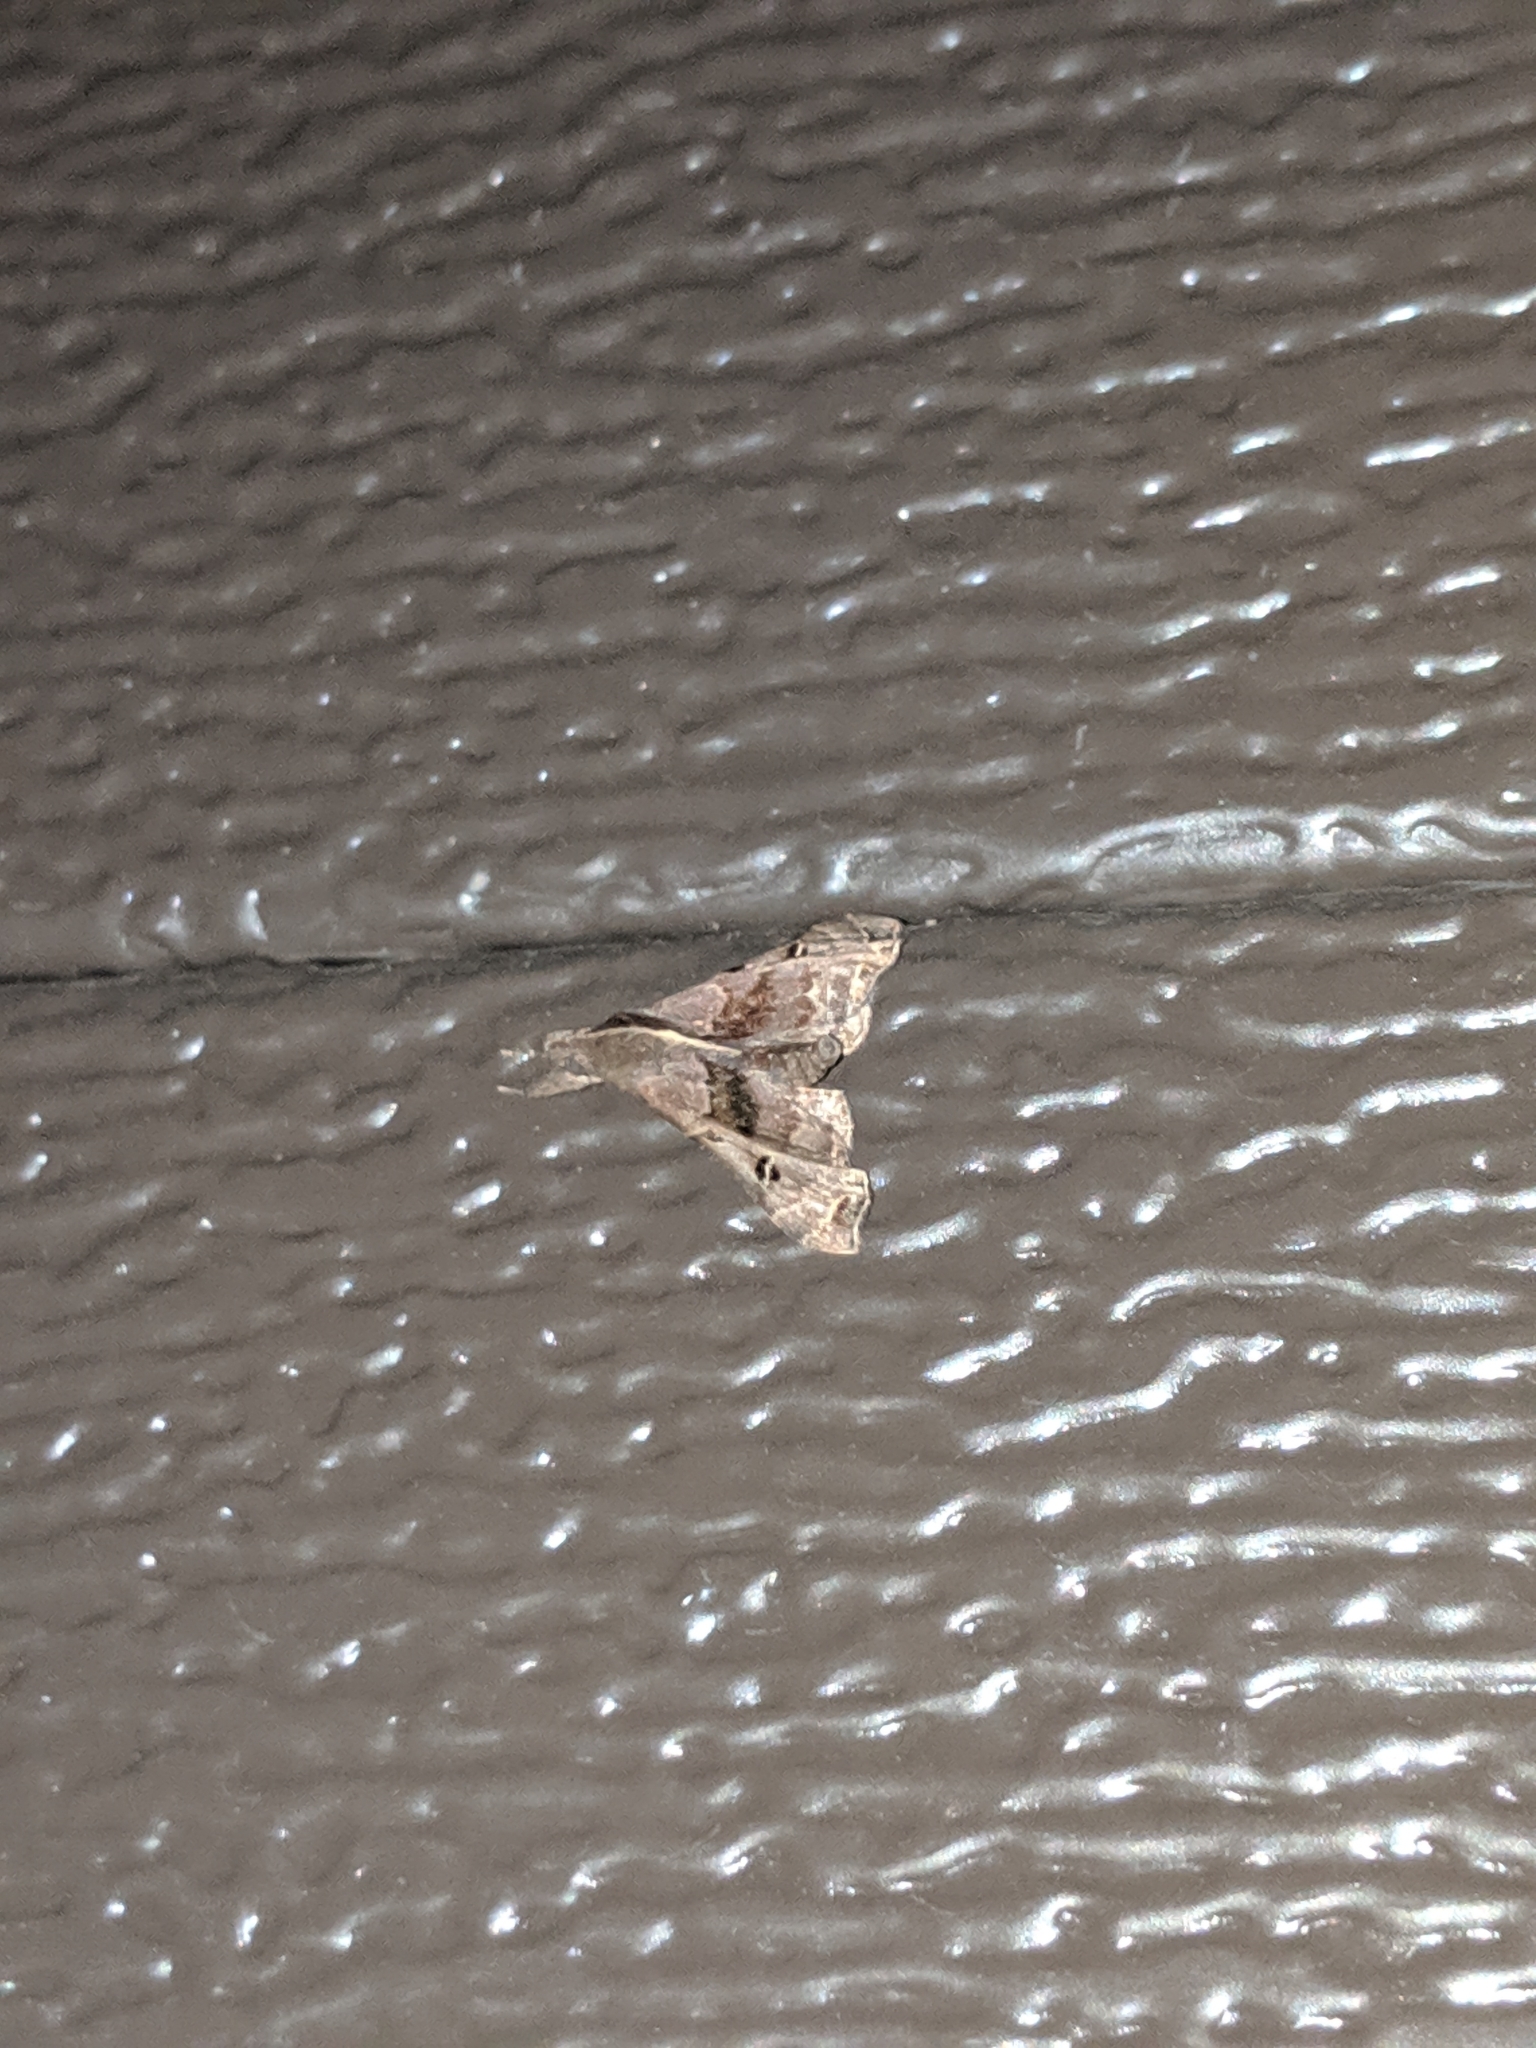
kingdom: Animalia
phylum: Arthropoda
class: Insecta
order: Lepidoptera
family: Erebidae
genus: Palthis
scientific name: Palthis asopialis
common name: Faint-spotted palthis moth
